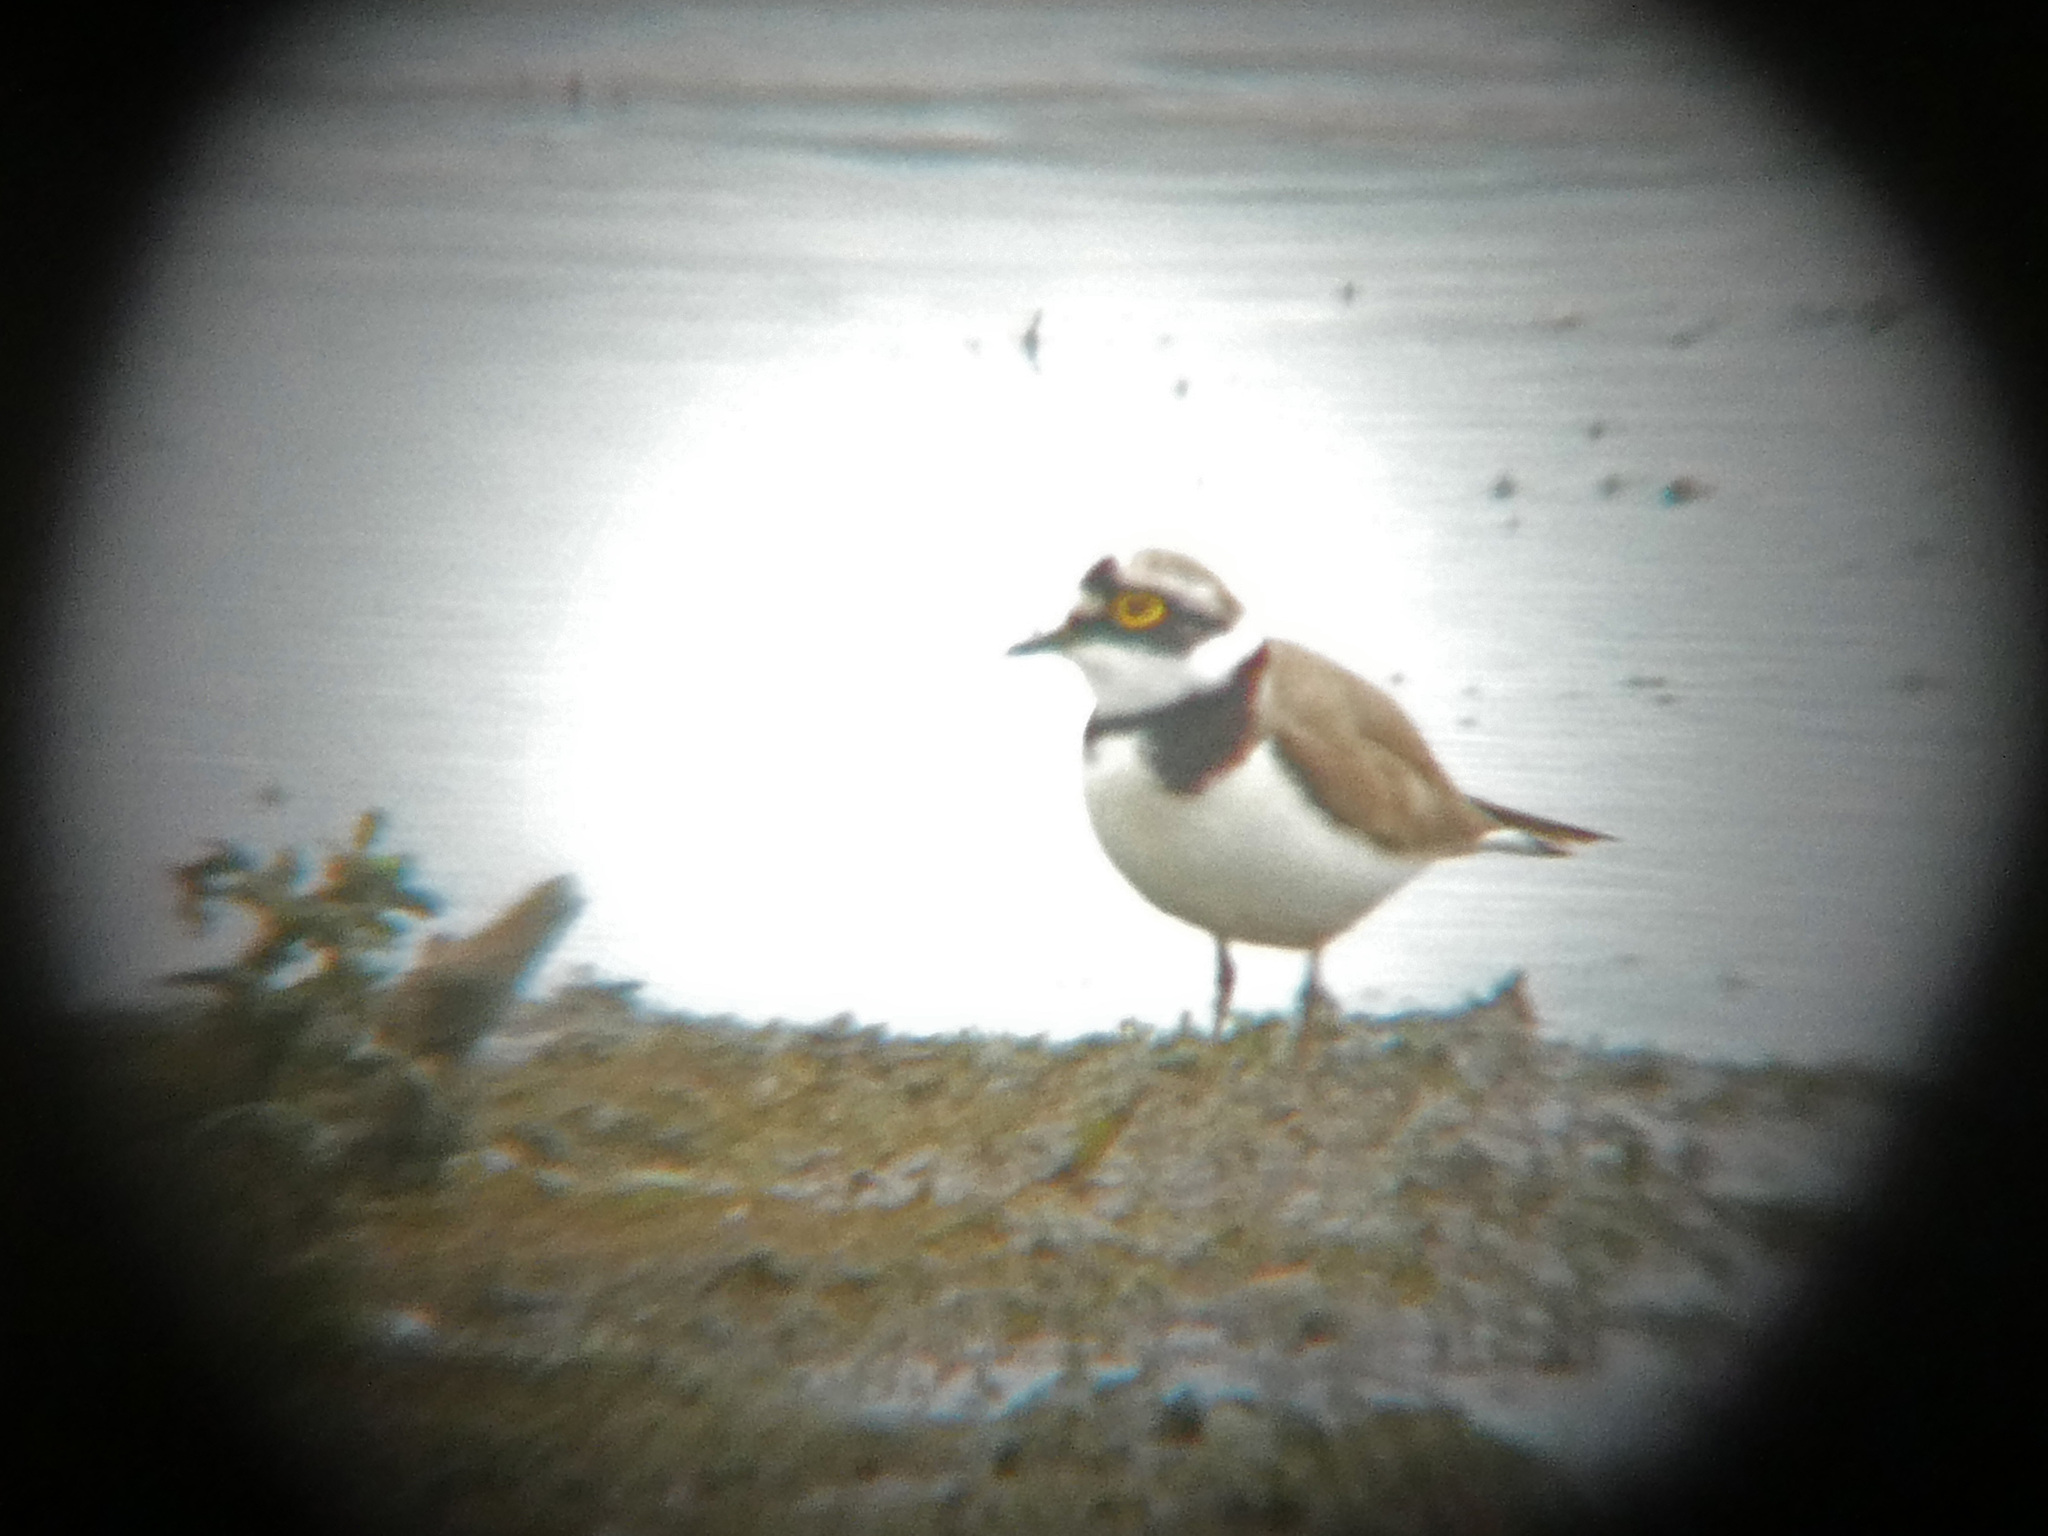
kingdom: Animalia
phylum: Chordata
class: Aves
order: Charadriiformes
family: Charadriidae
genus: Charadrius
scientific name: Charadrius dubius
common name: Little ringed plover
